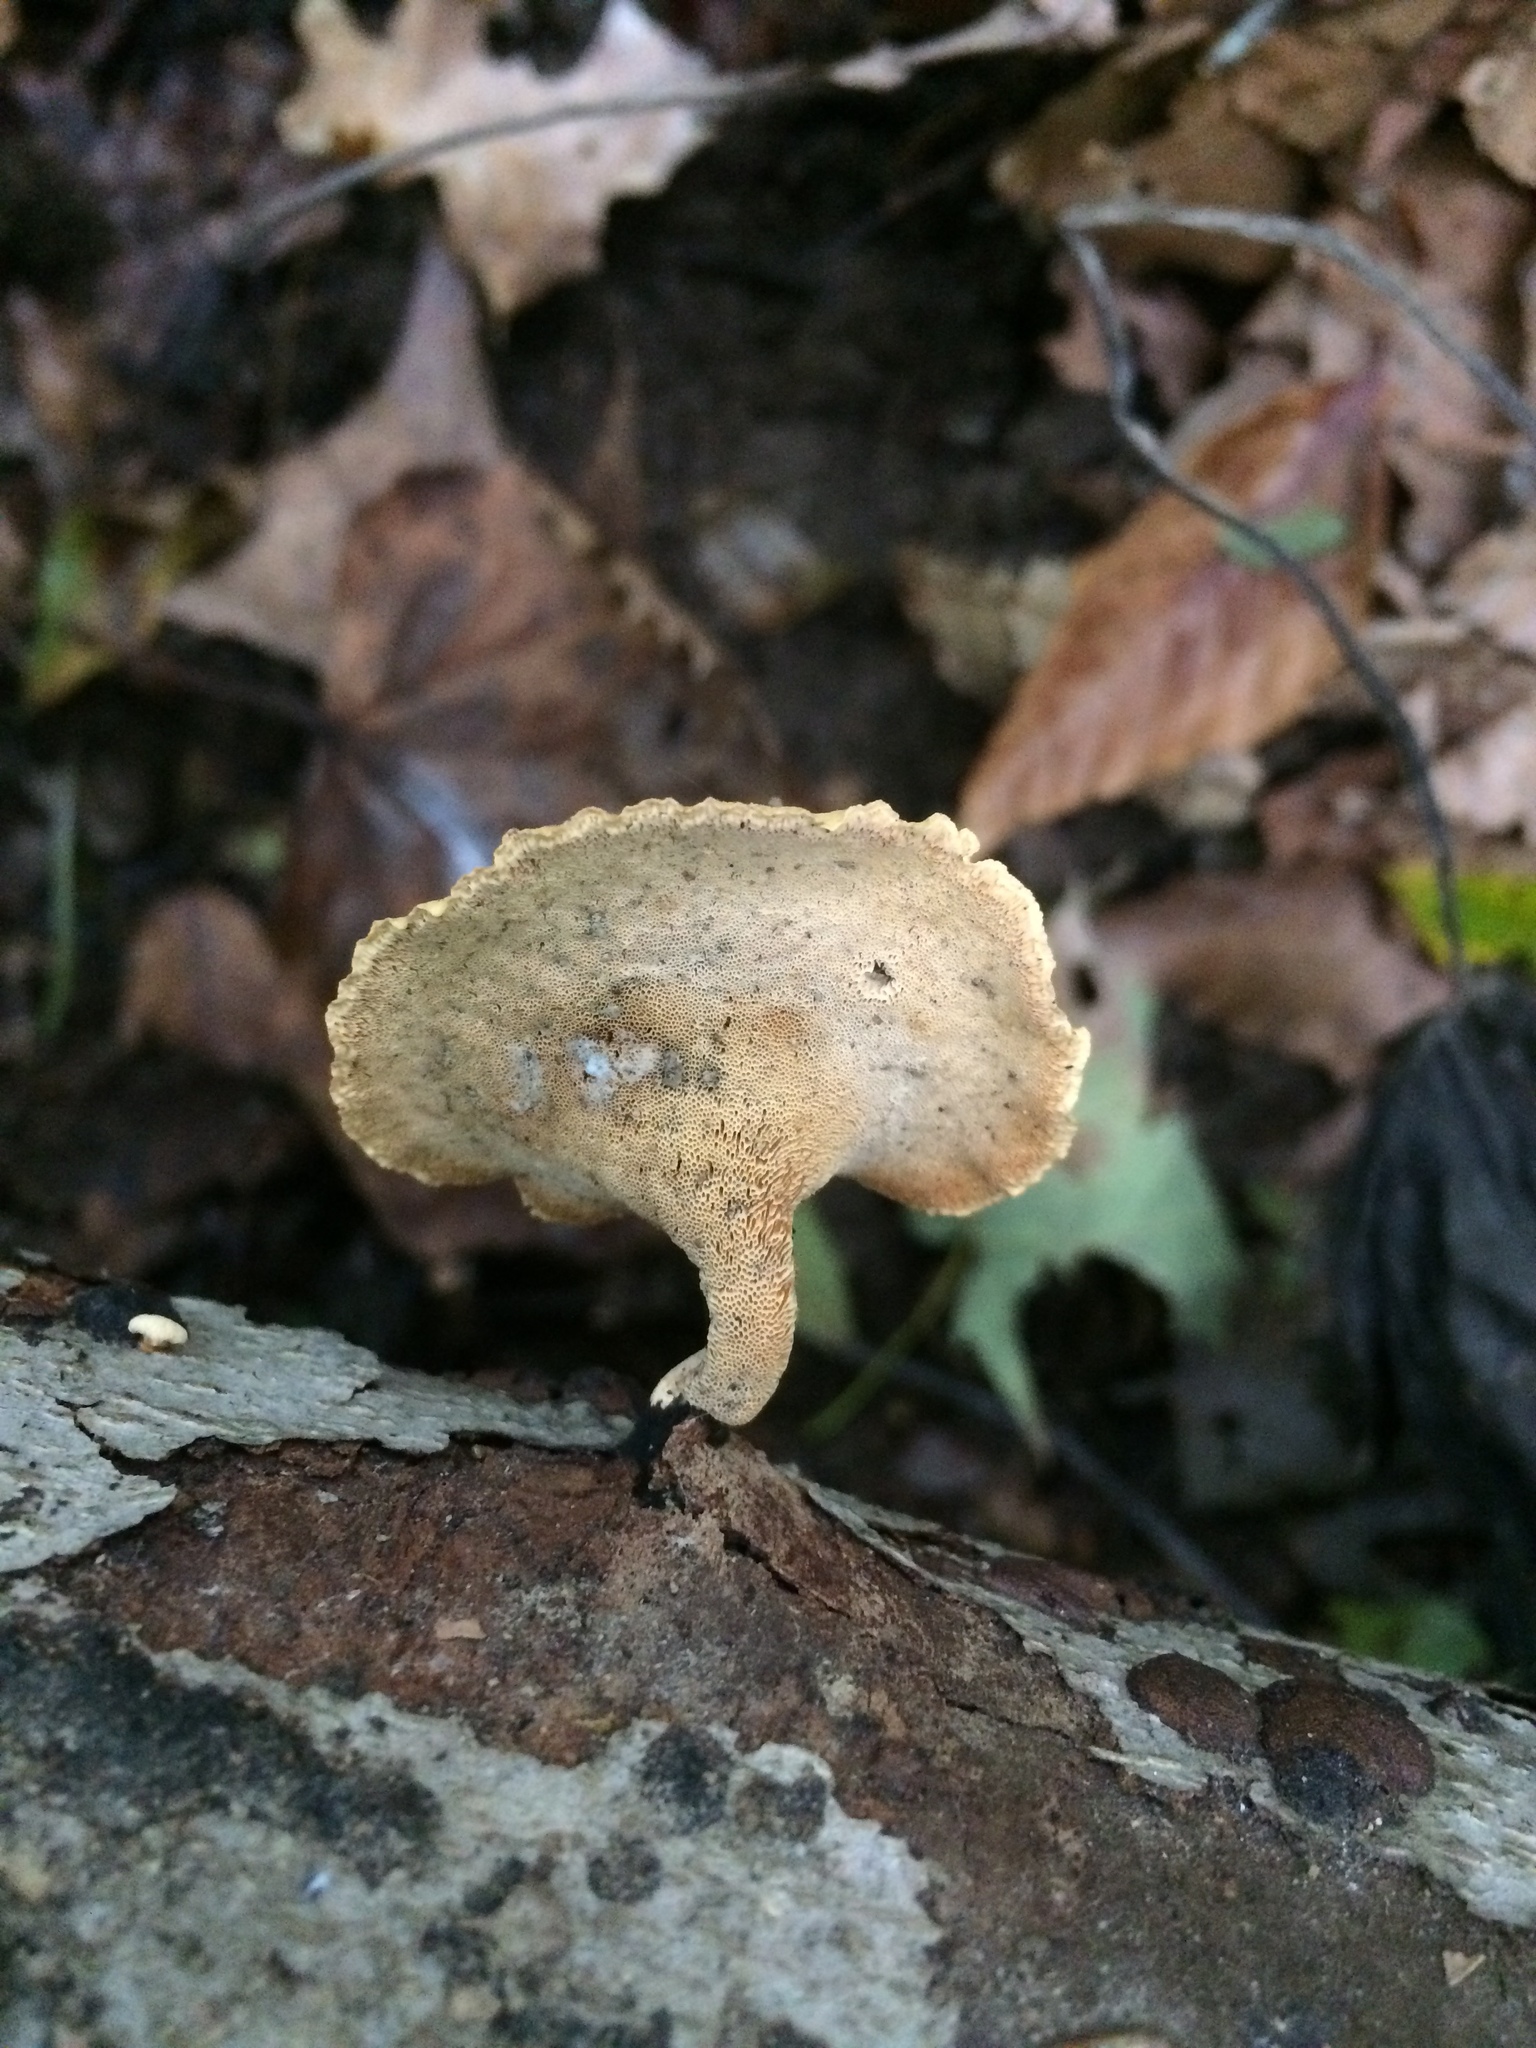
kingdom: Fungi
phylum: Basidiomycota
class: Agaricomycetes
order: Polyporales
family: Polyporaceae
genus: Cerioporus
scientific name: Cerioporus leptocephalus
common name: Blackfoot polypore
